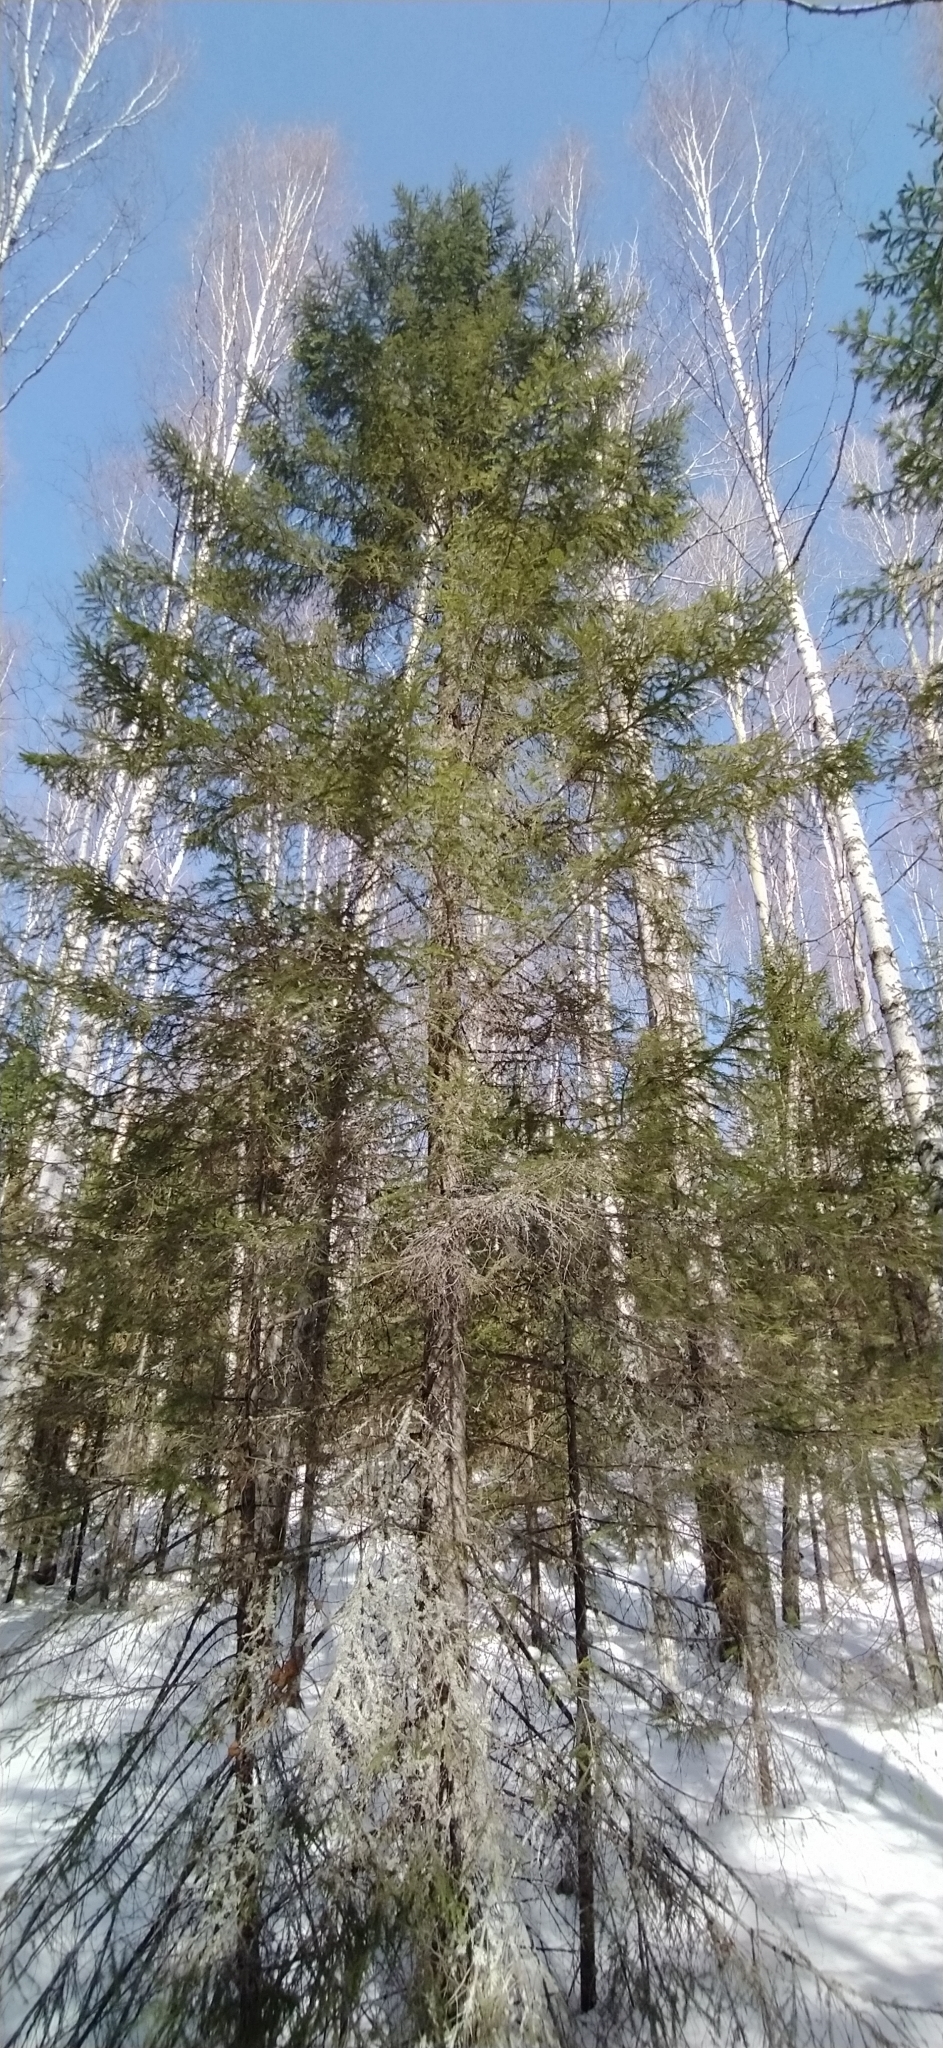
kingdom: Plantae
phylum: Tracheophyta
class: Pinopsida
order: Pinales
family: Pinaceae
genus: Picea
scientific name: Picea obovata
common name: Siberian spruce
